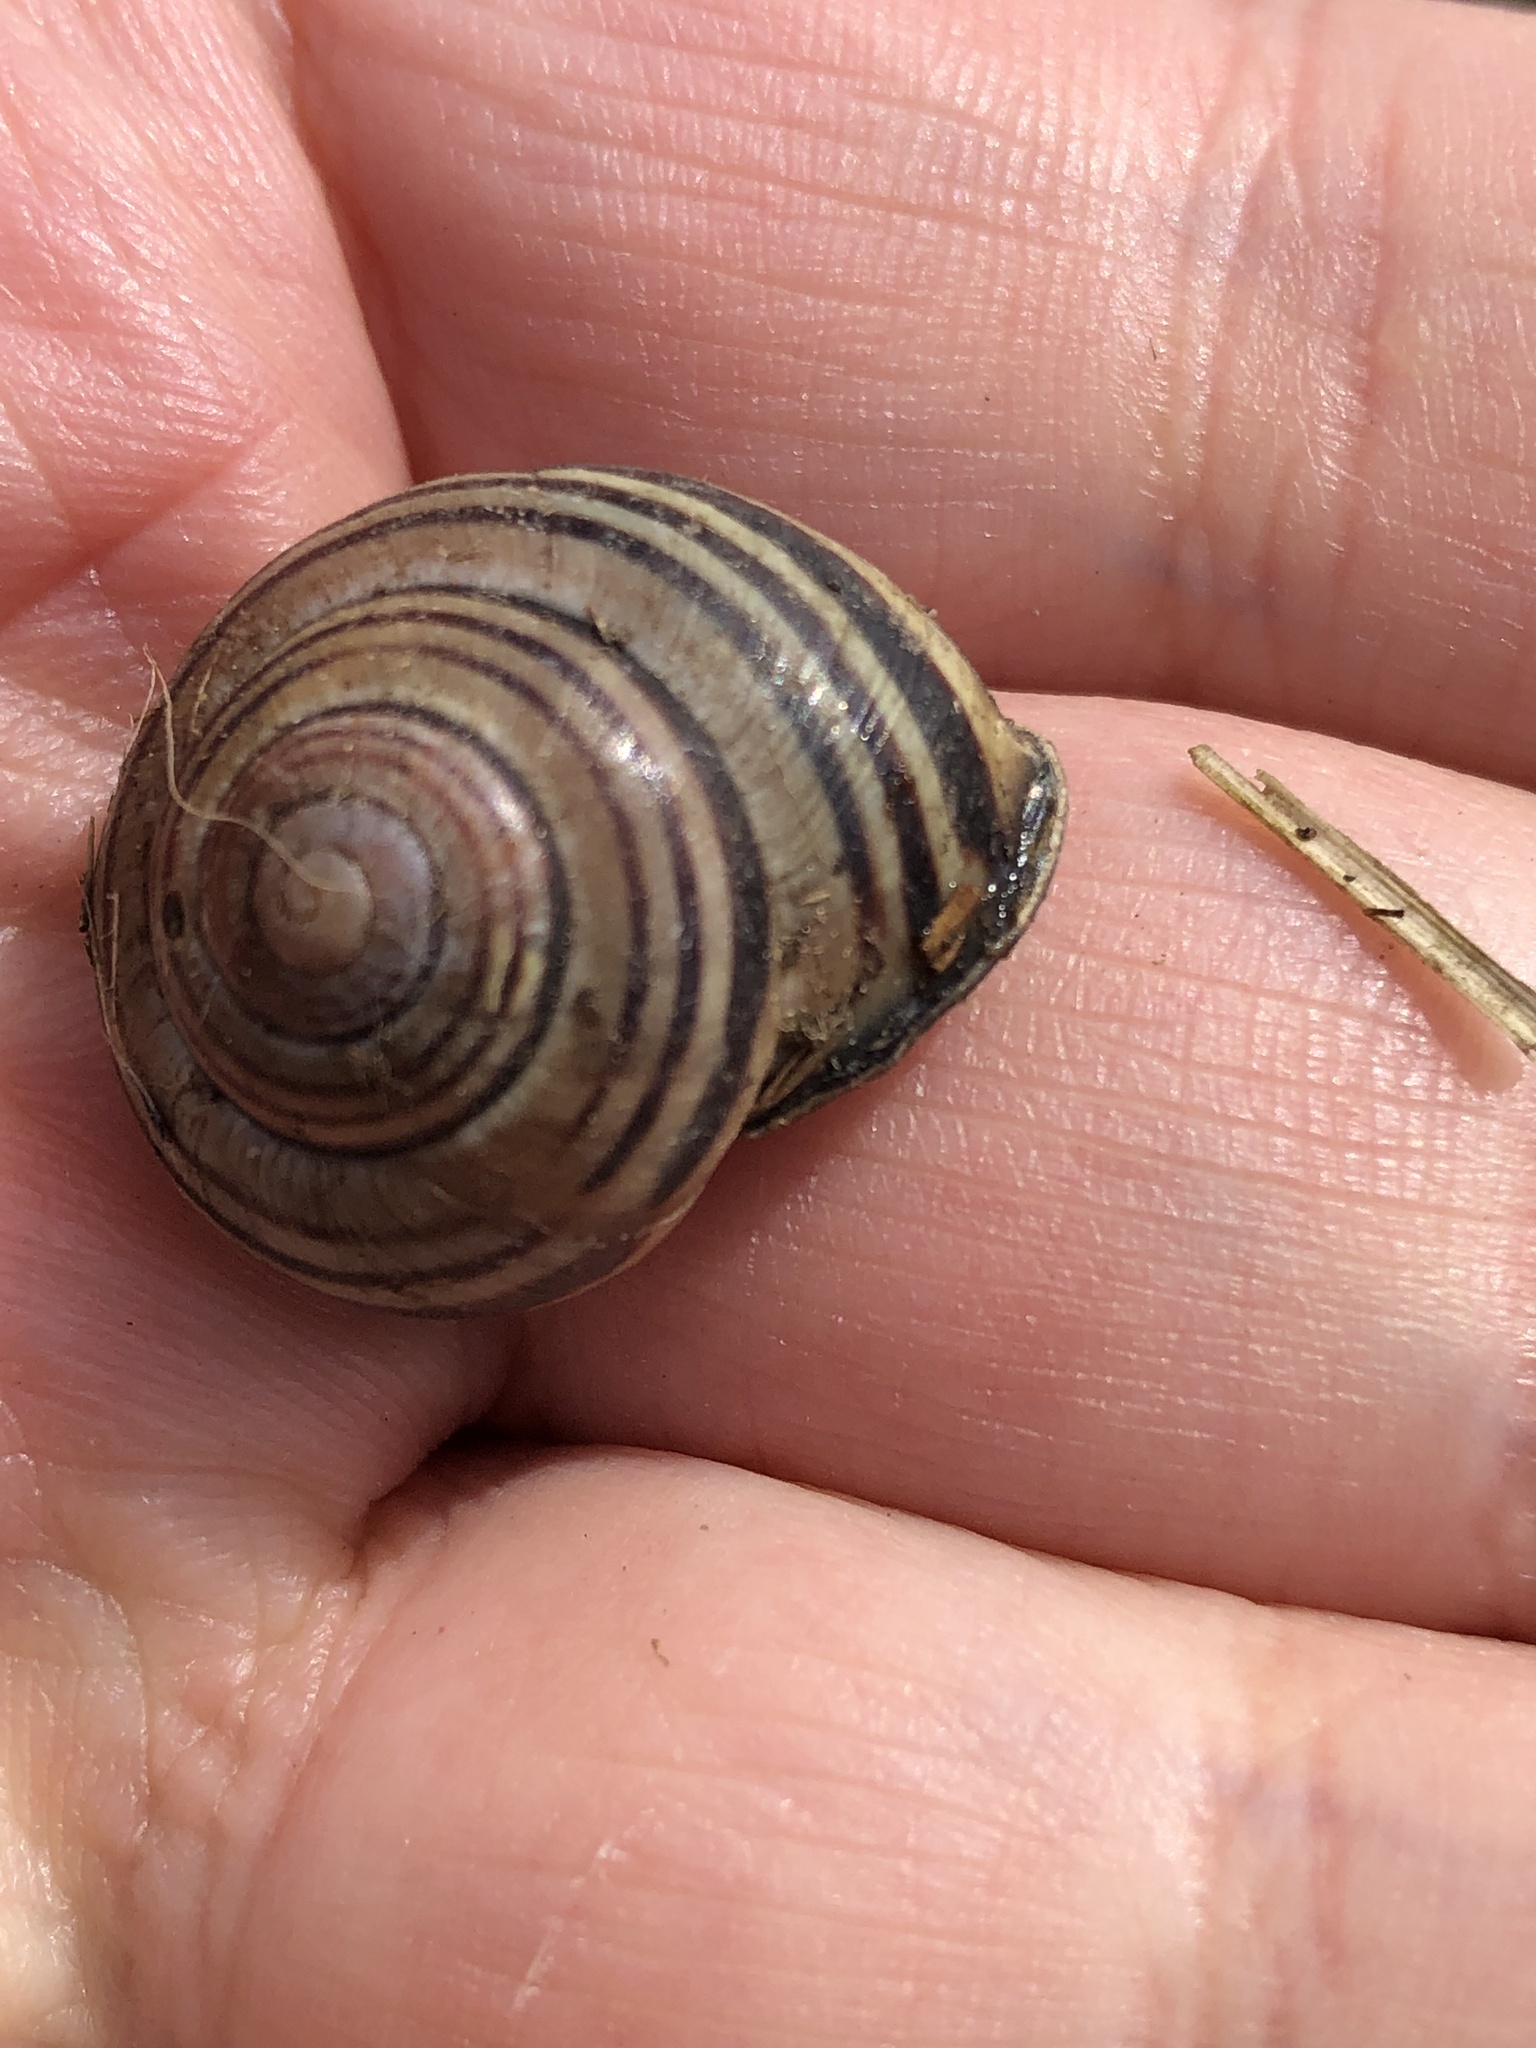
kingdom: Animalia
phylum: Mollusca
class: Gastropoda
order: Stylommatophora
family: Helicidae
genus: Cepaea
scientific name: Cepaea nemoralis
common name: Grovesnail
